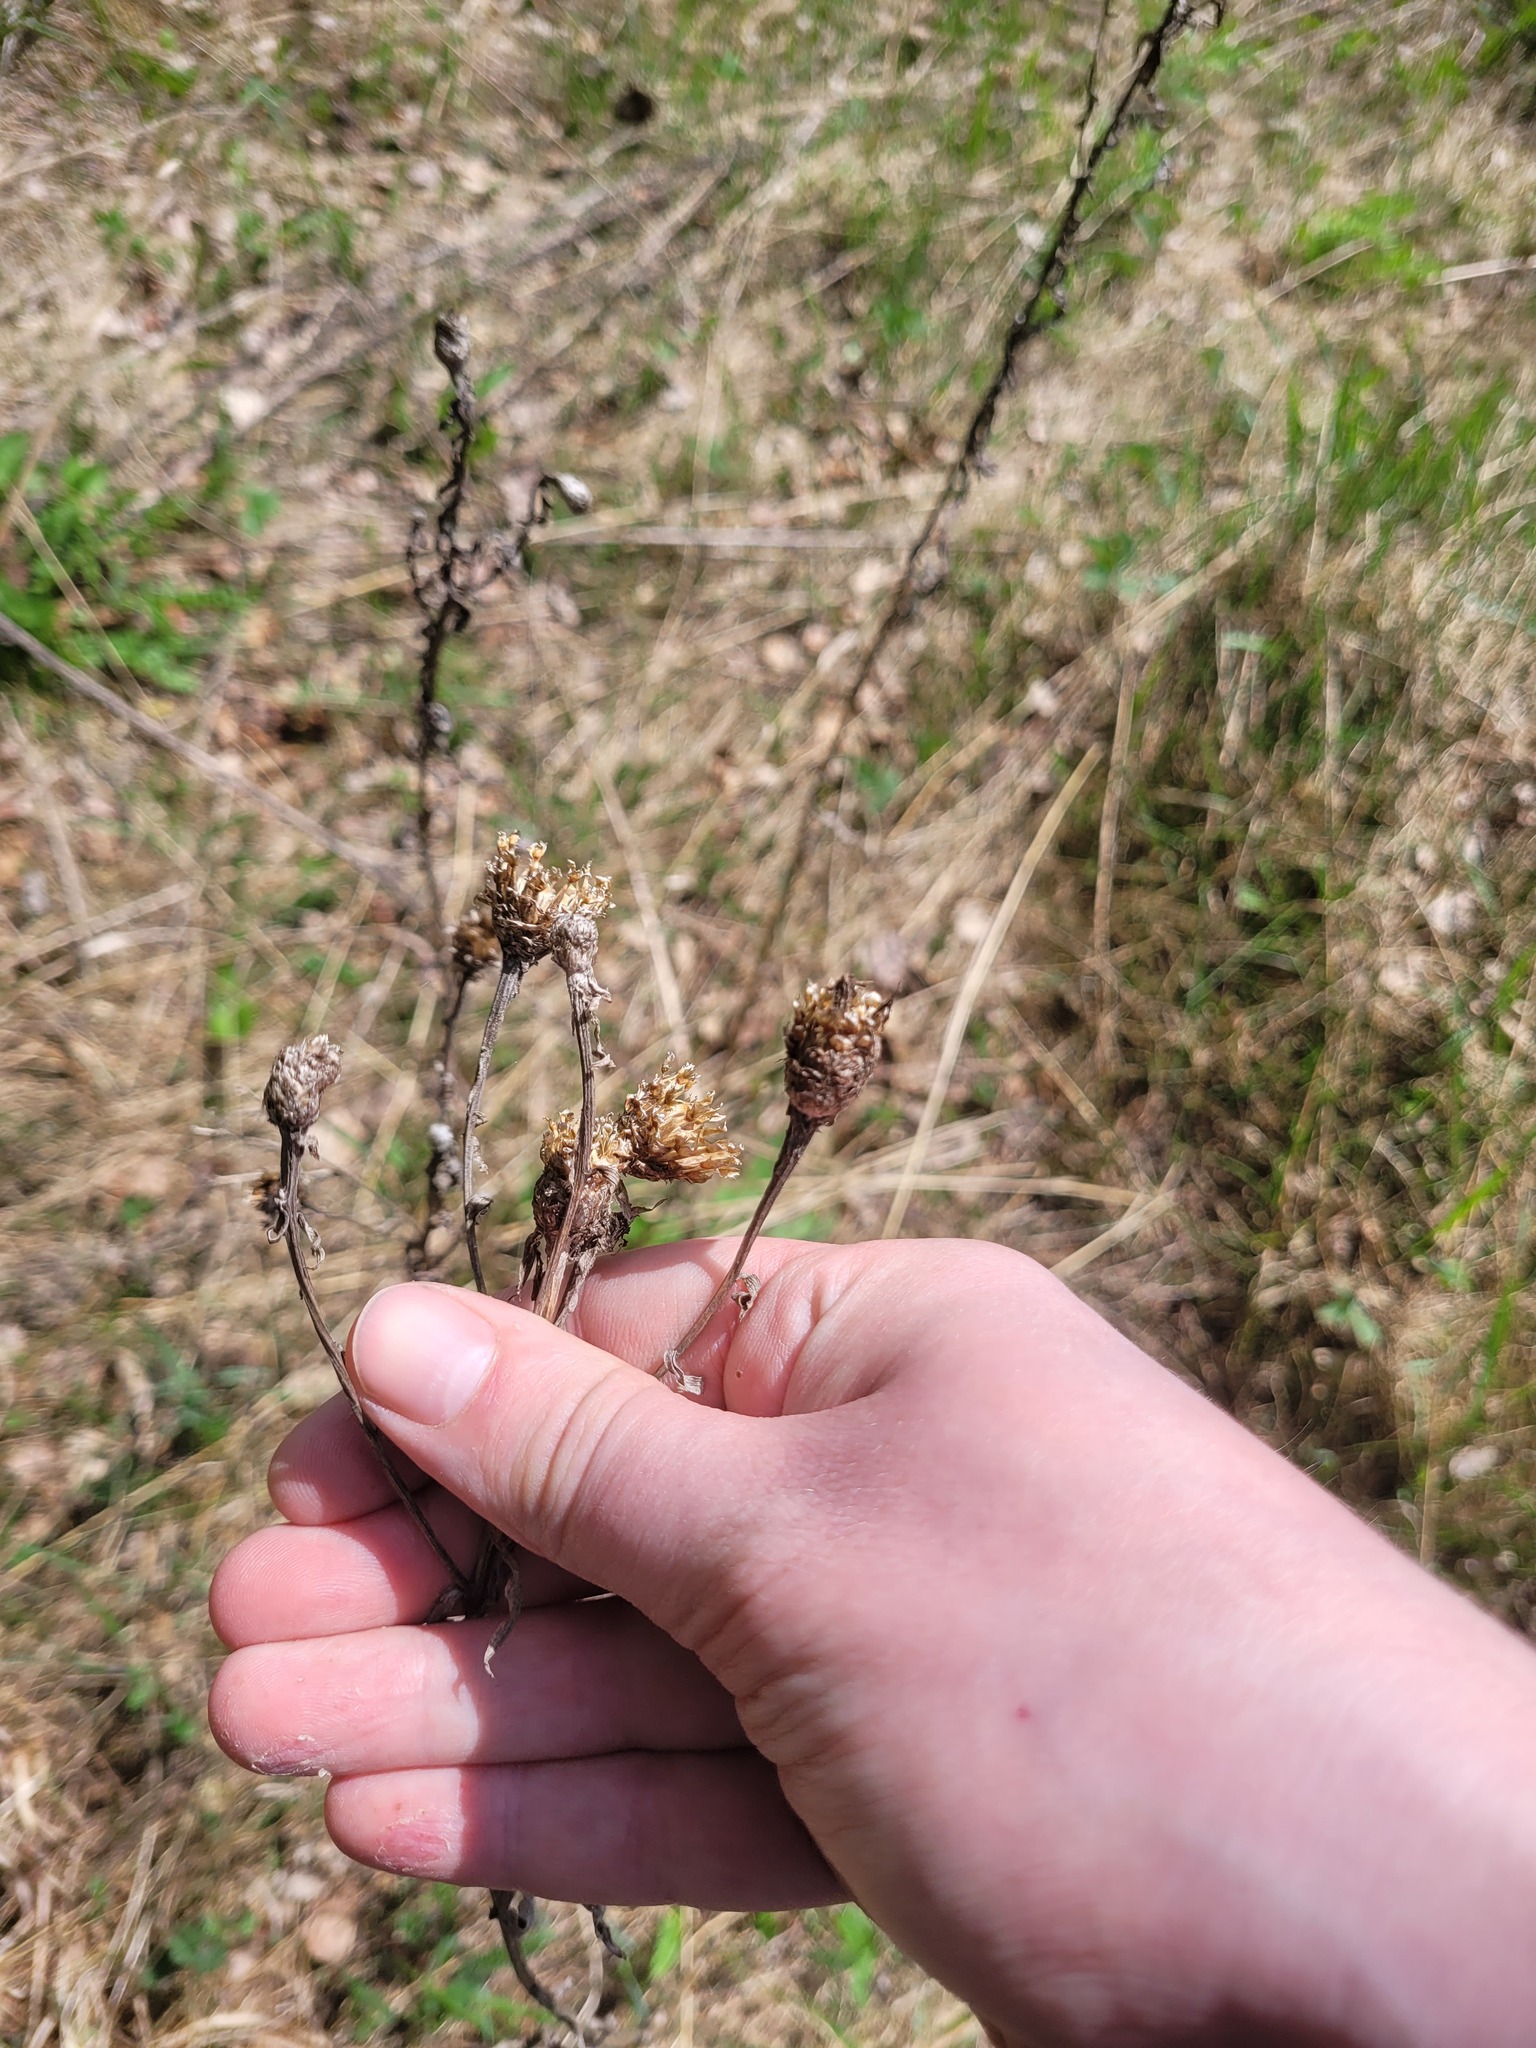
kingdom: Plantae
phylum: Tracheophyta
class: Magnoliopsida
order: Asterales
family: Asteraceae
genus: Centaurea
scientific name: Centaurea jacea
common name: Brown knapweed
